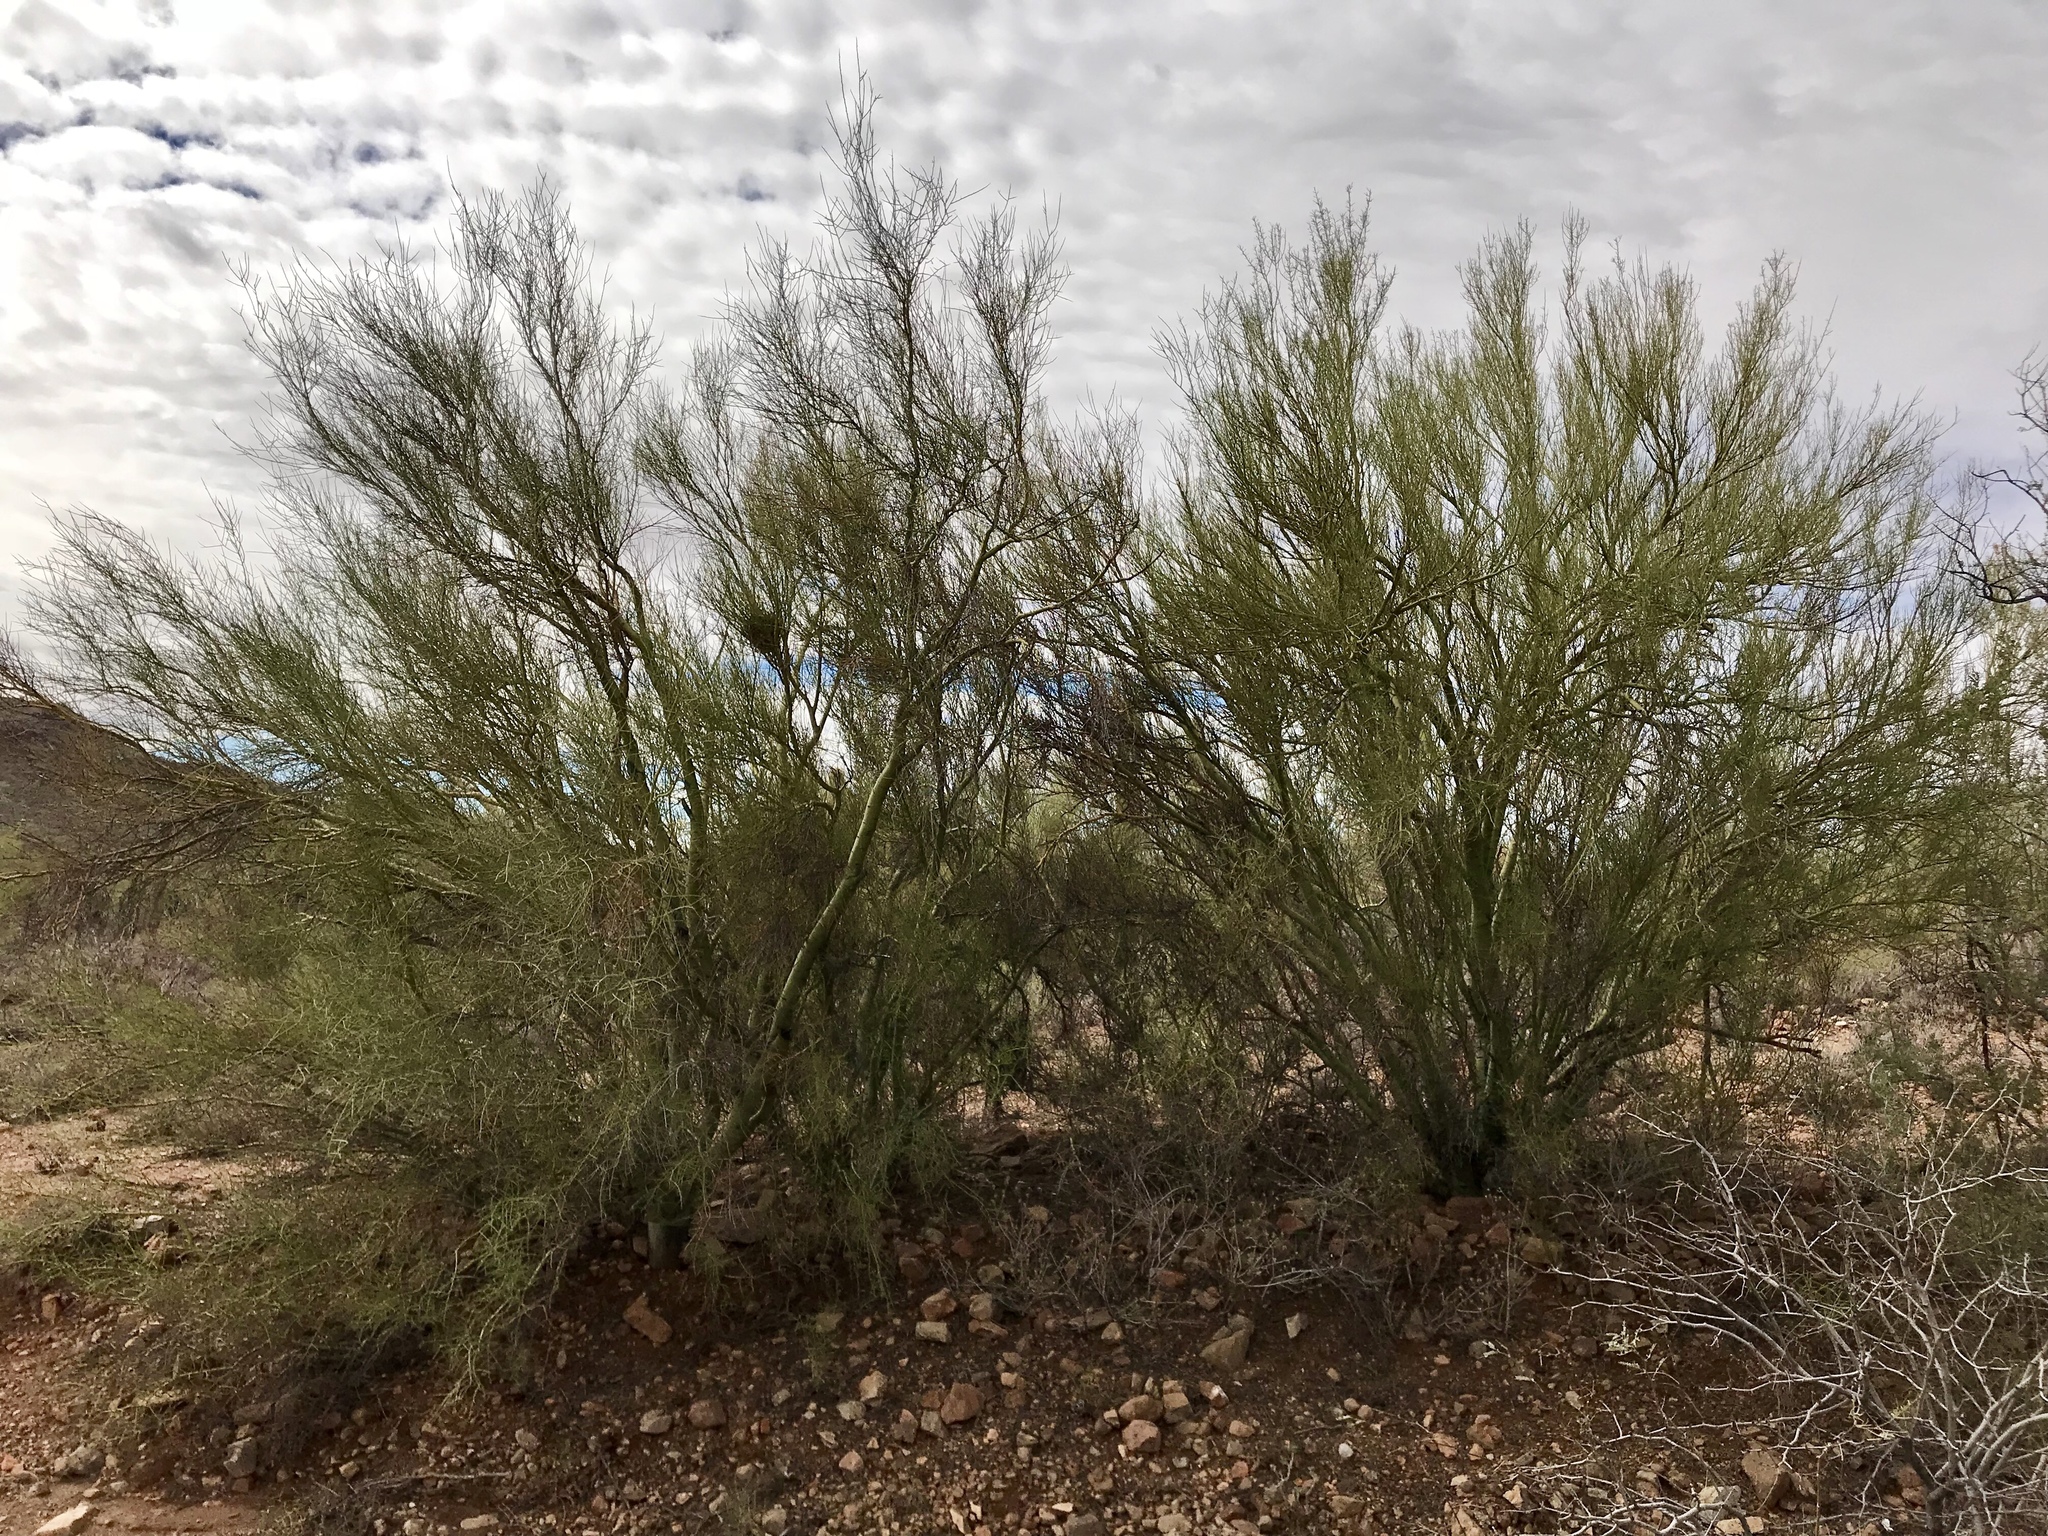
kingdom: Plantae
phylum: Tracheophyta
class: Magnoliopsida
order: Fabales
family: Fabaceae
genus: Parkinsonia
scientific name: Parkinsonia microphylla
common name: Yellow paloverde
